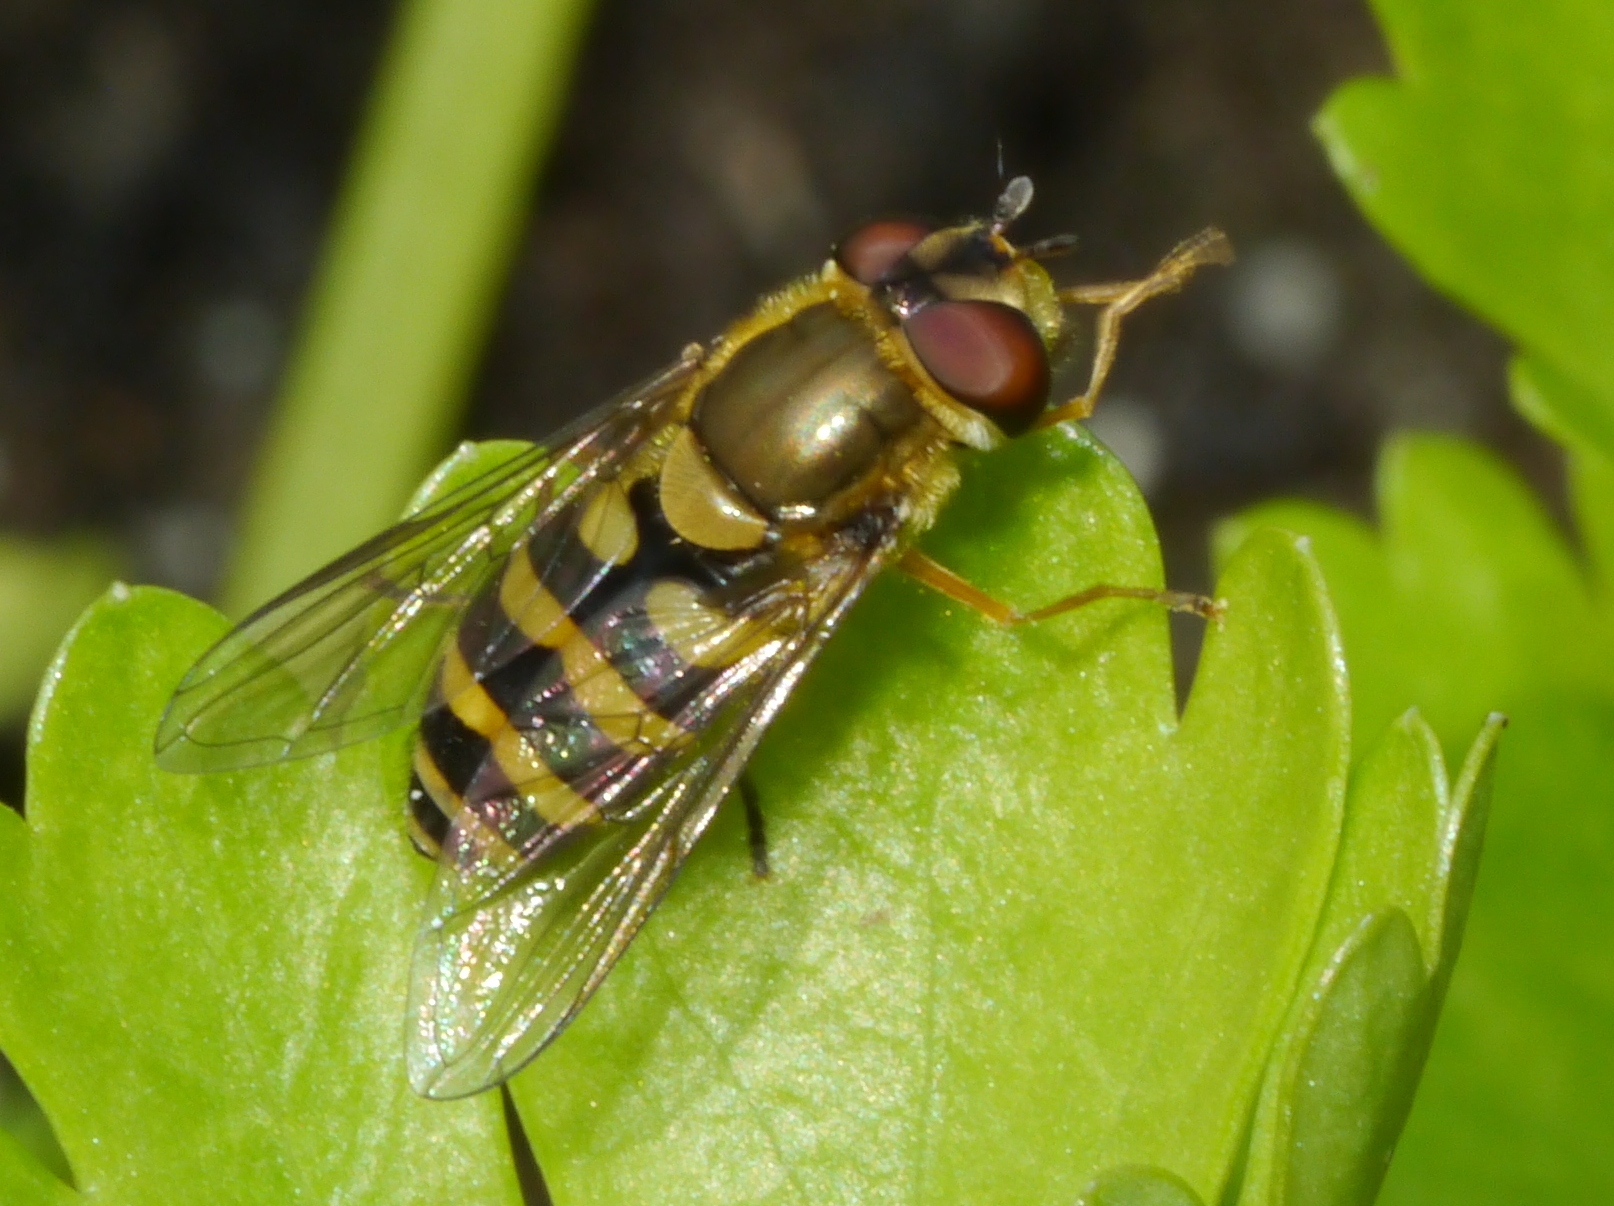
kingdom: Animalia
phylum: Arthropoda
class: Insecta
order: Diptera
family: Syrphidae
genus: Syrphus
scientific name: Syrphus
